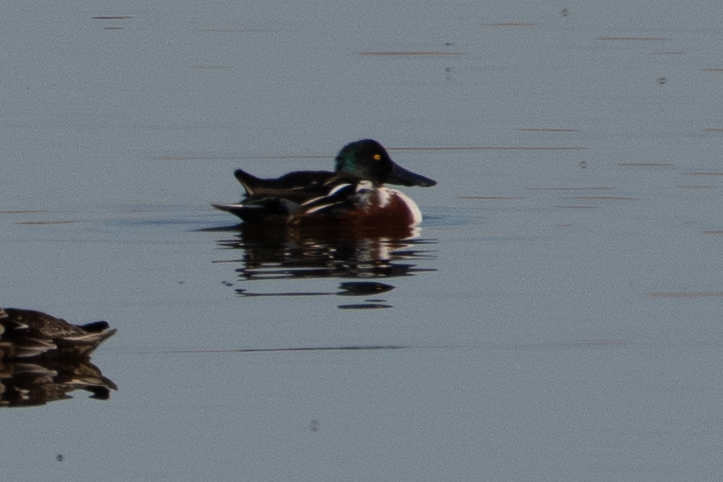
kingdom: Animalia
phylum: Chordata
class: Aves
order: Anseriformes
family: Anatidae
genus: Spatula
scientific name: Spatula clypeata
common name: Northern shoveler
